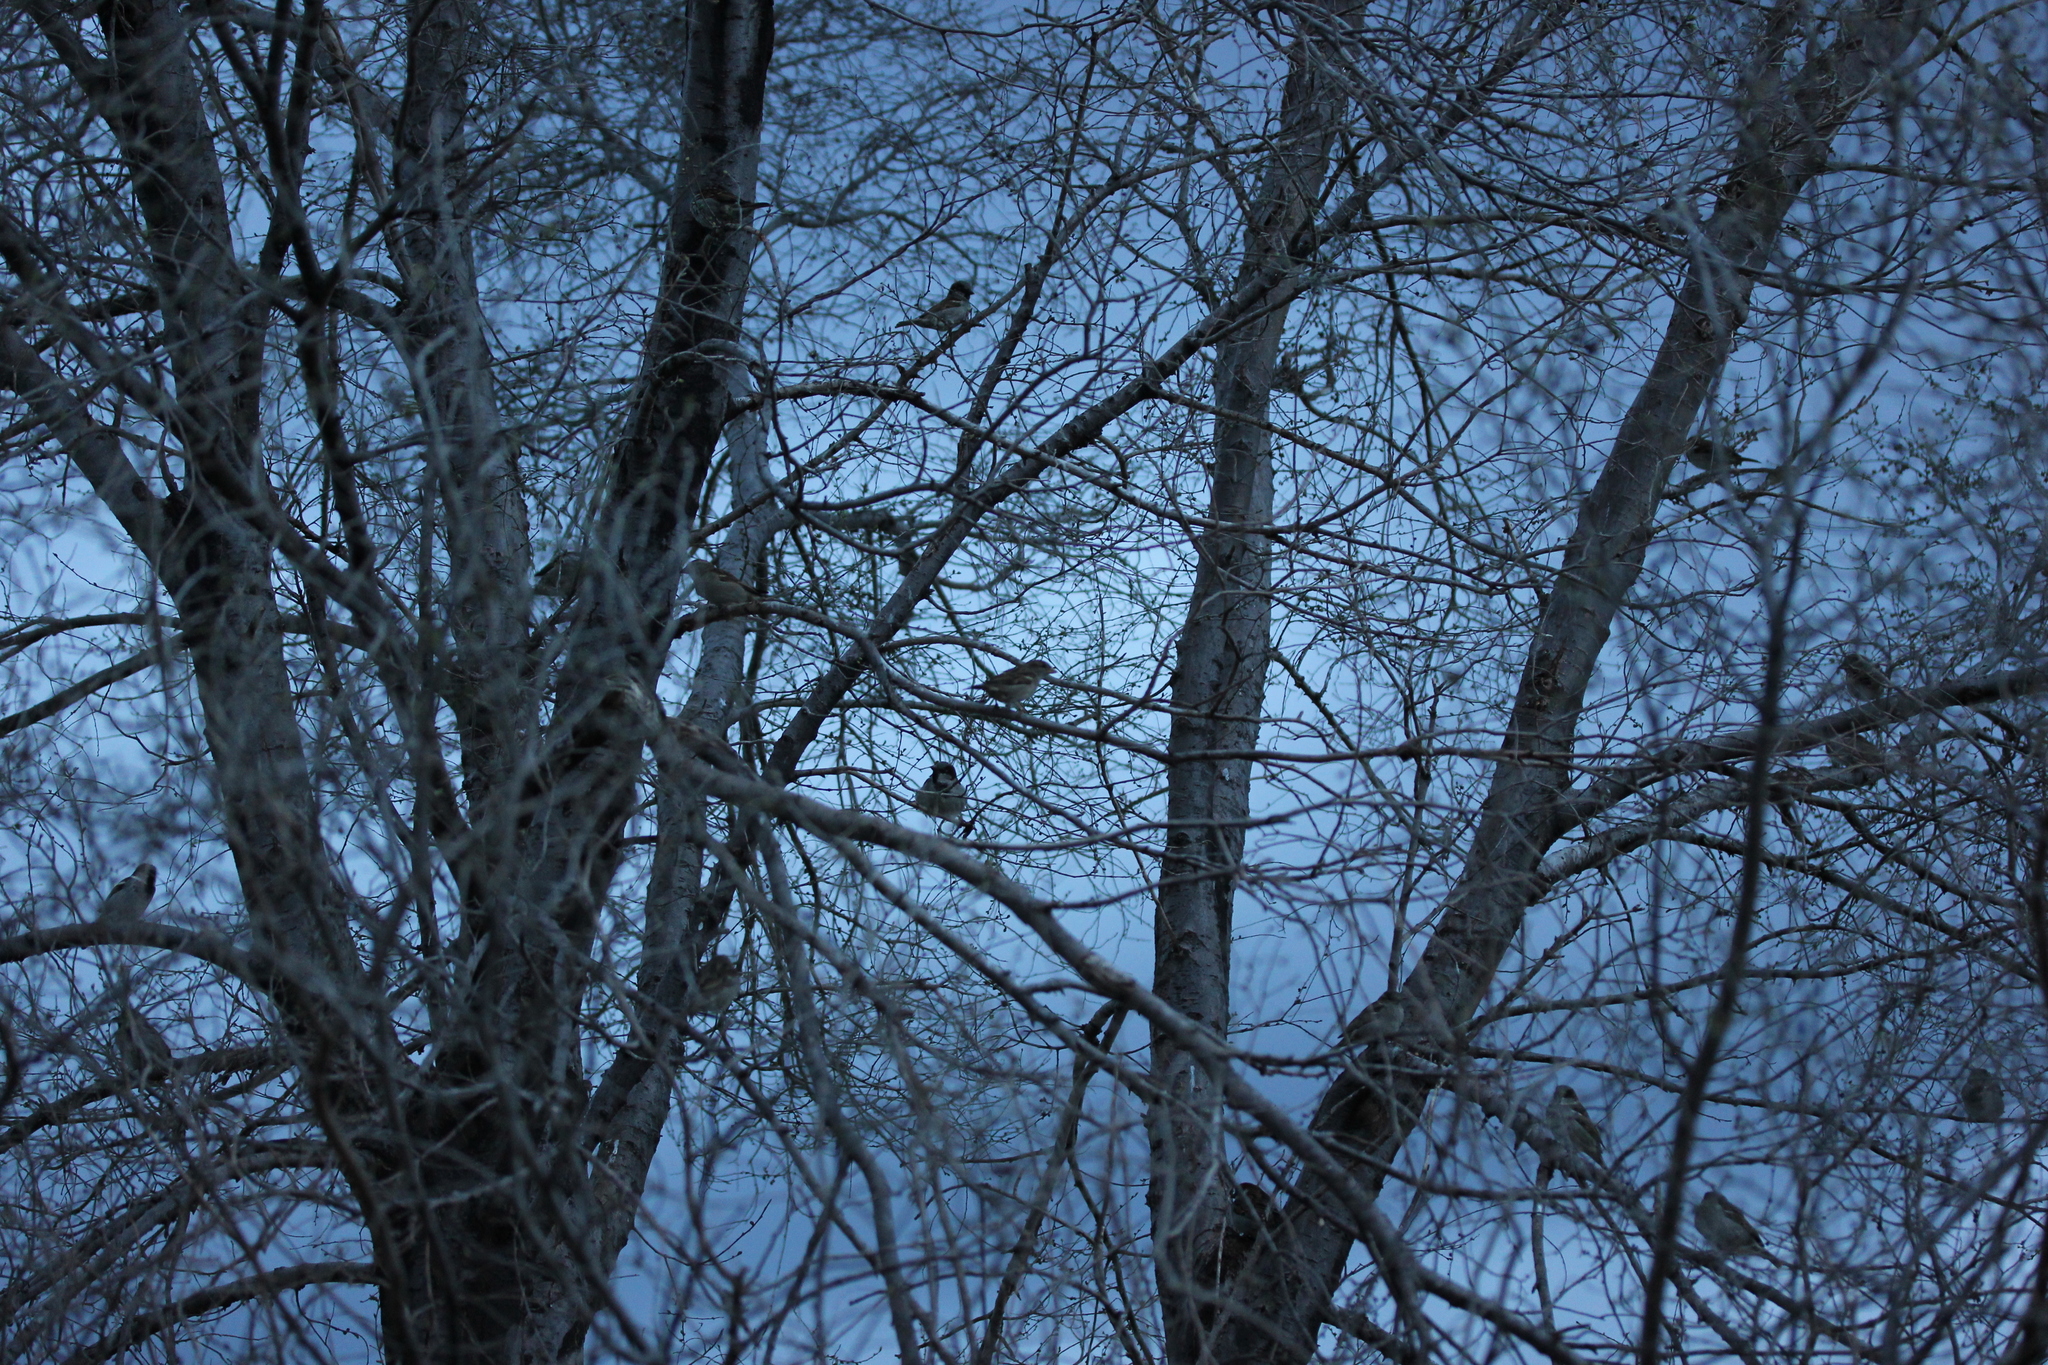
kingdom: Animalia
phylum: Chordata
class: Aves
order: Passeriformes
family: Passeridae
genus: Passer
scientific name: Passer domesticus
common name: House sparrow
